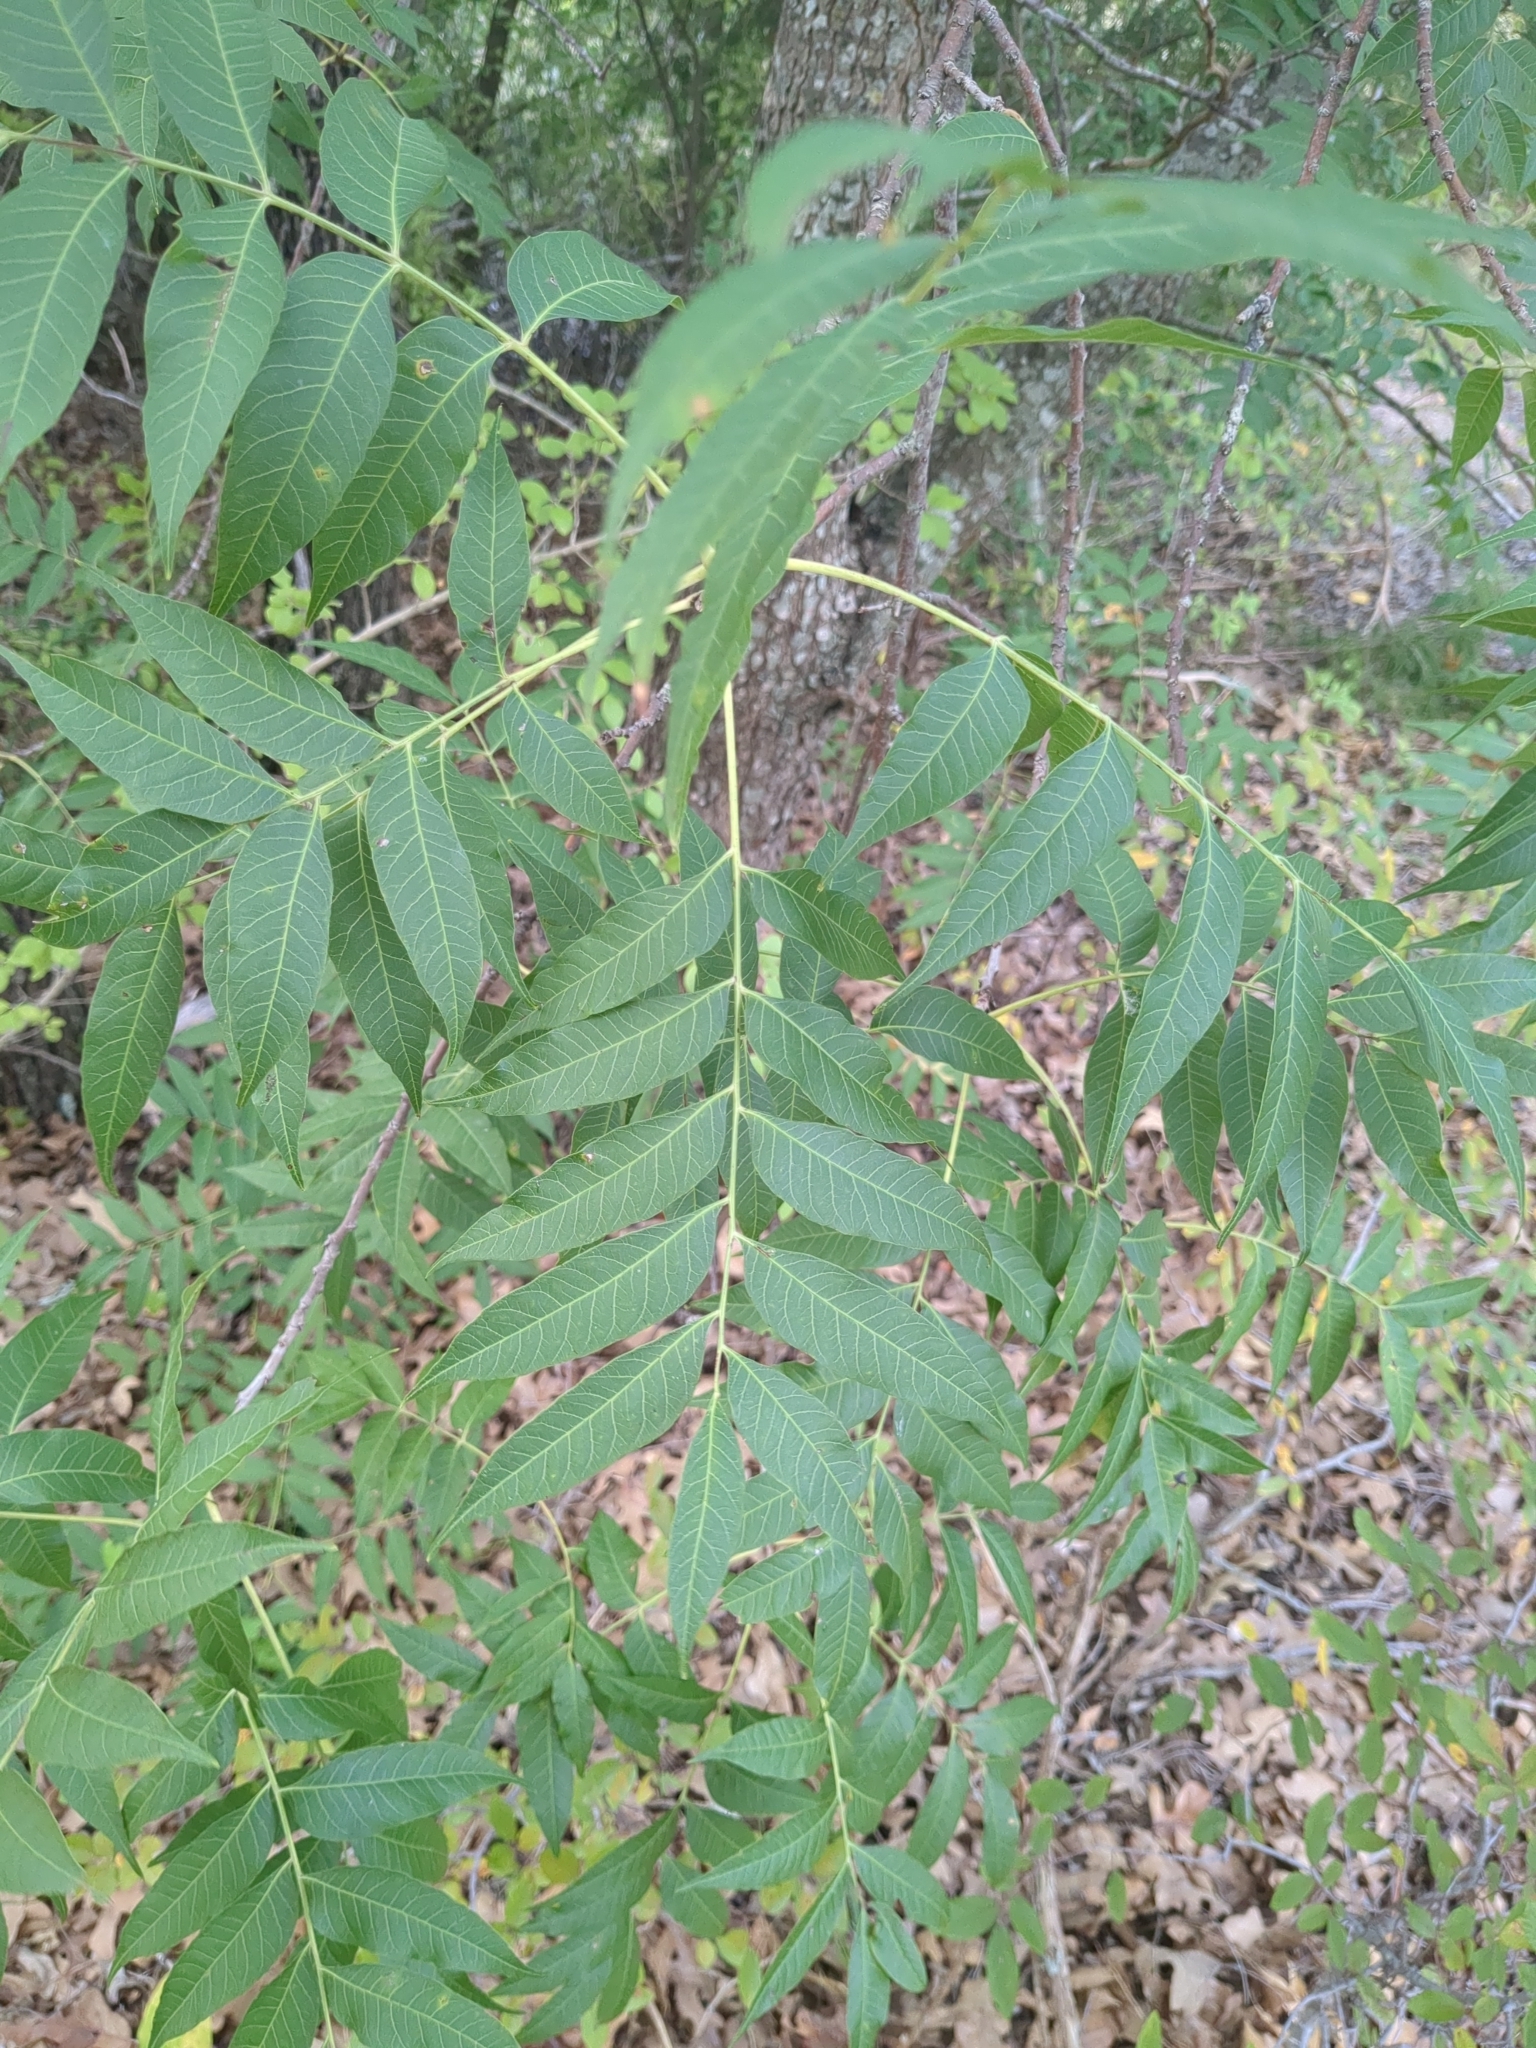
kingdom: Plantae
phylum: Tracheophyta
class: Magnoliopsida
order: Sapindales
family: Anacardiaceae
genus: Pistacia
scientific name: Pistacia chinensis
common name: Chinese pistache
